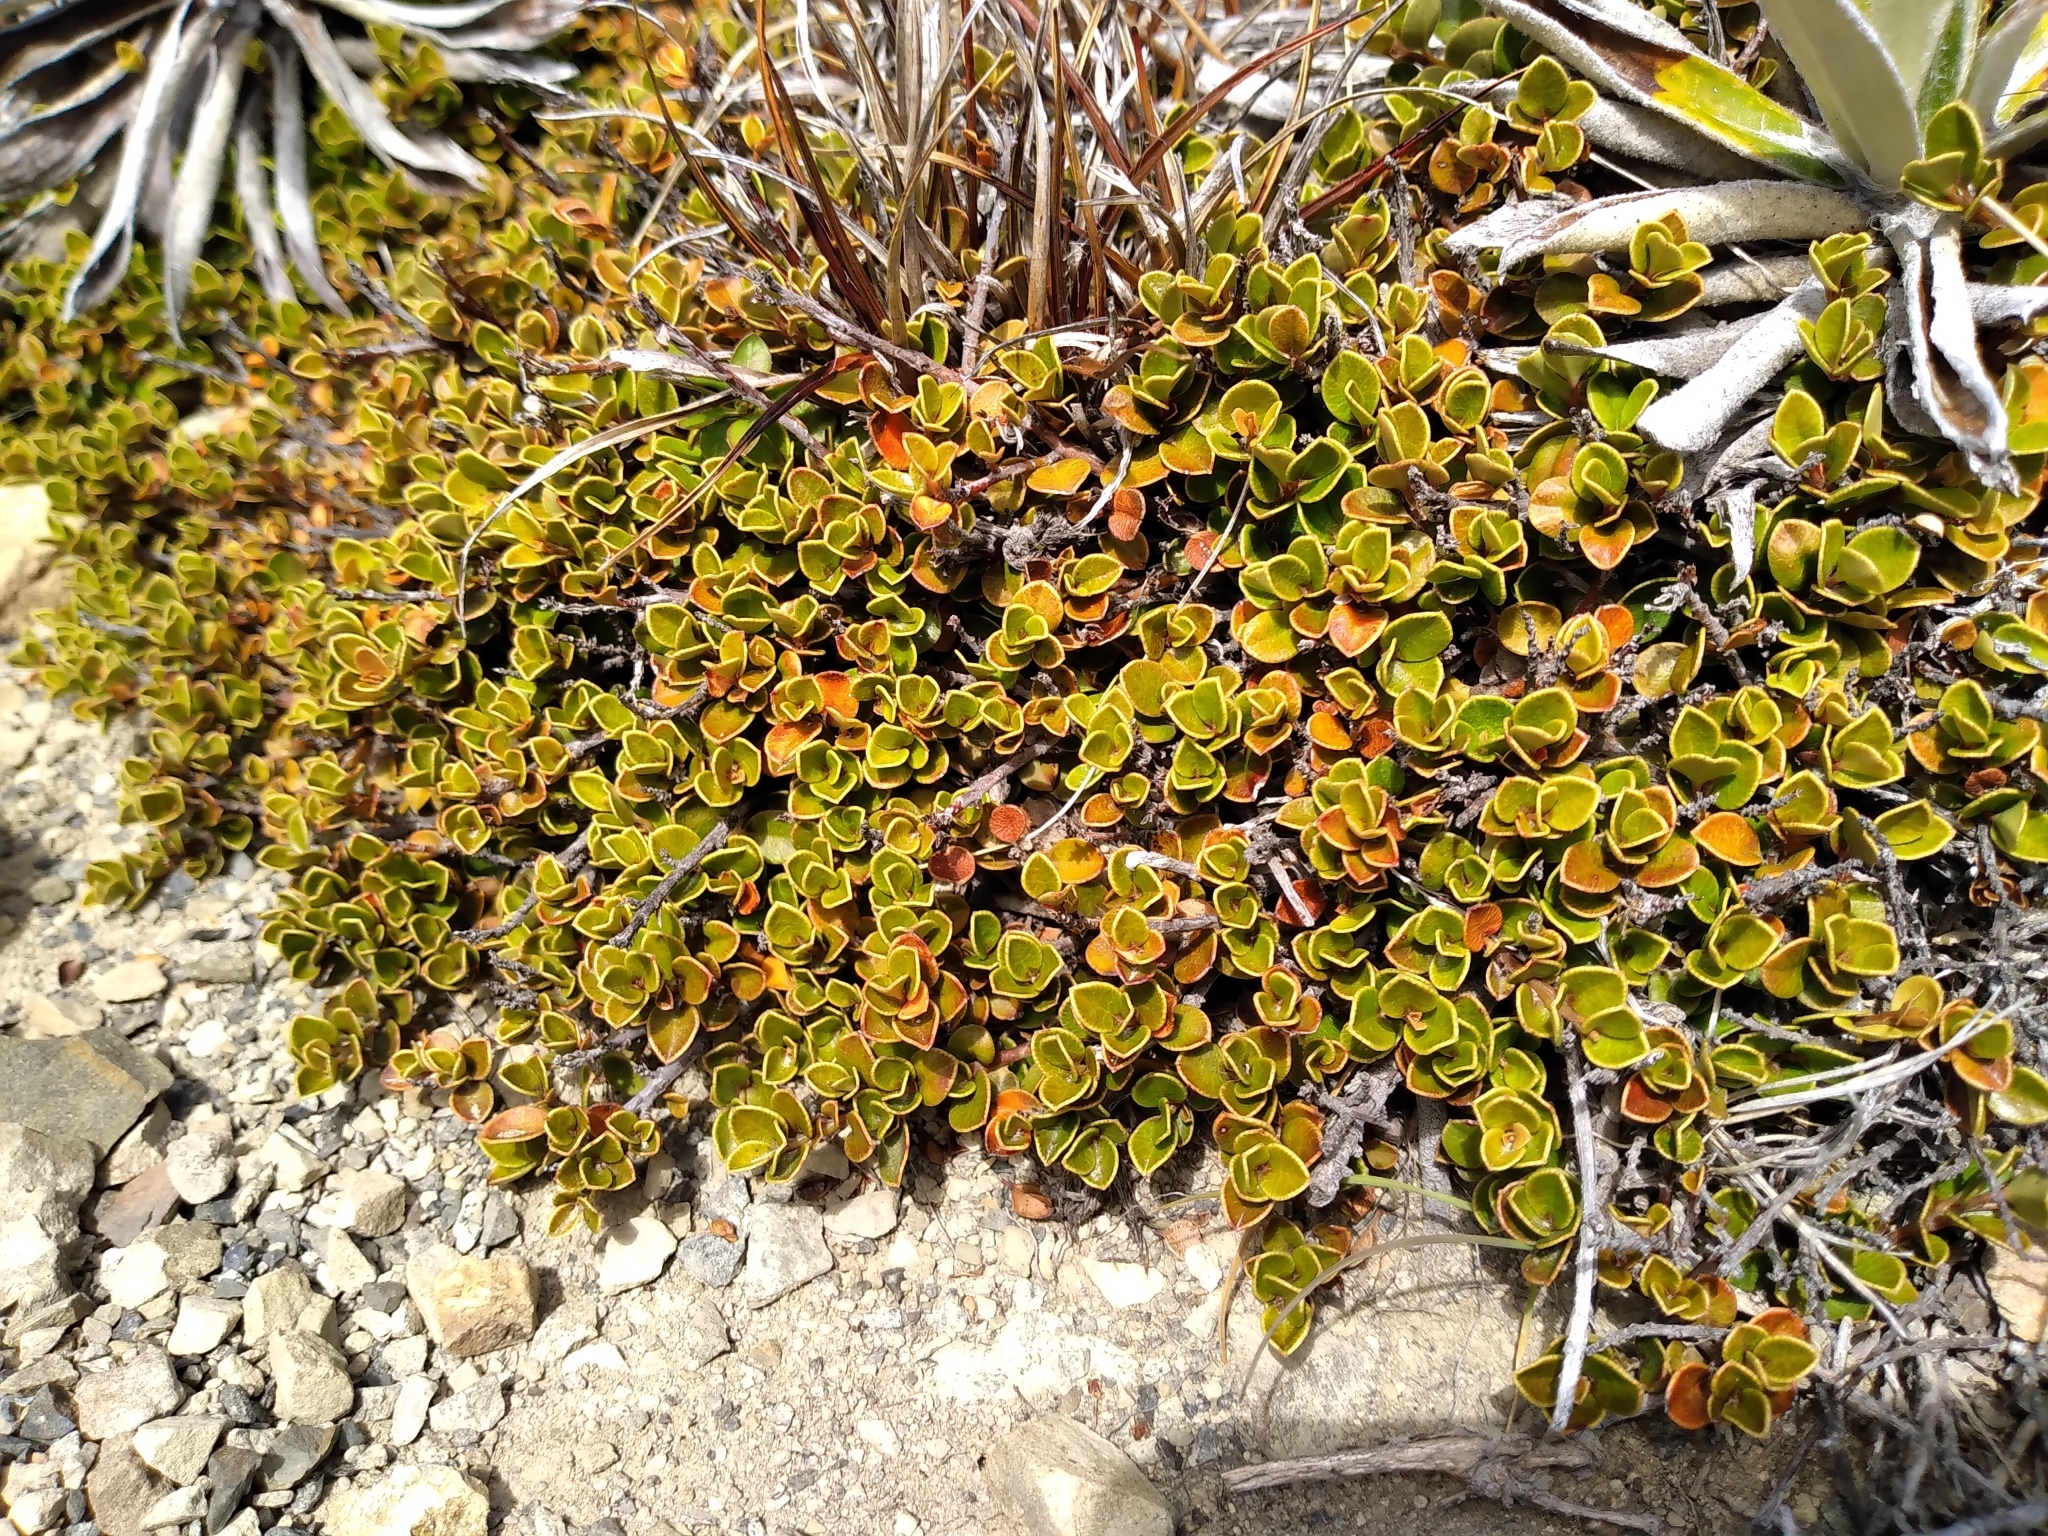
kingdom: Plantae
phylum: Tracheophyta
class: Magnoliopsida
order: Ericales
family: Primulaceae
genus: Myrsine
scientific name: Myrsine nummularia
